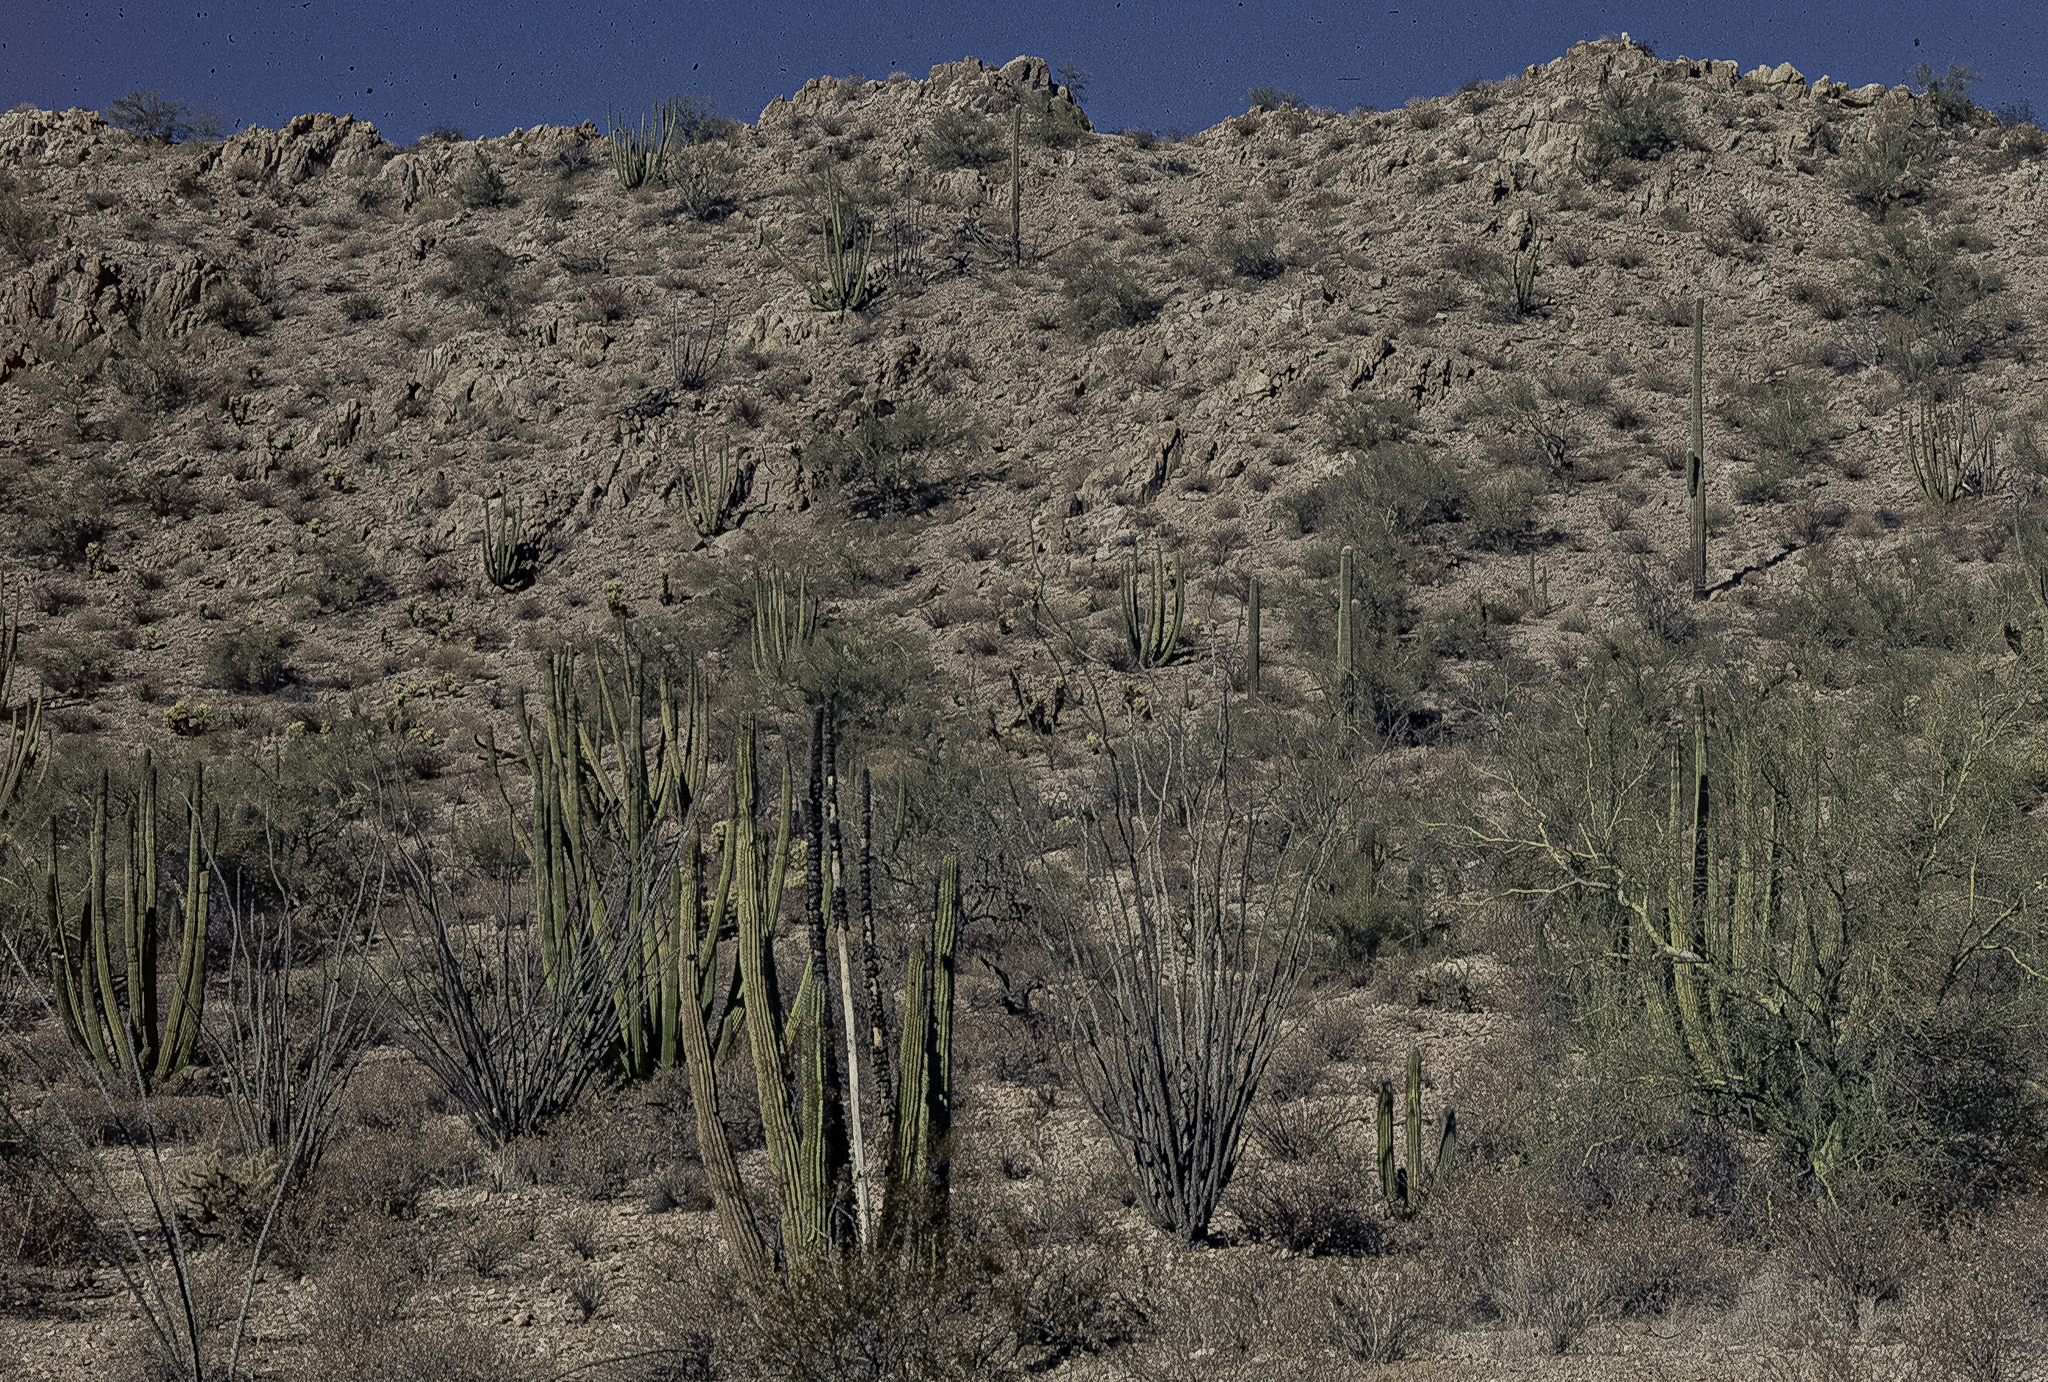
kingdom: Plantae
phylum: Tracheophyta
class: Magnoliopsida
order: Caryophyllales
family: Cactaceae
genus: Stenocereus
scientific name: Stenocereus thurberi
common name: Organ pipe cactus
